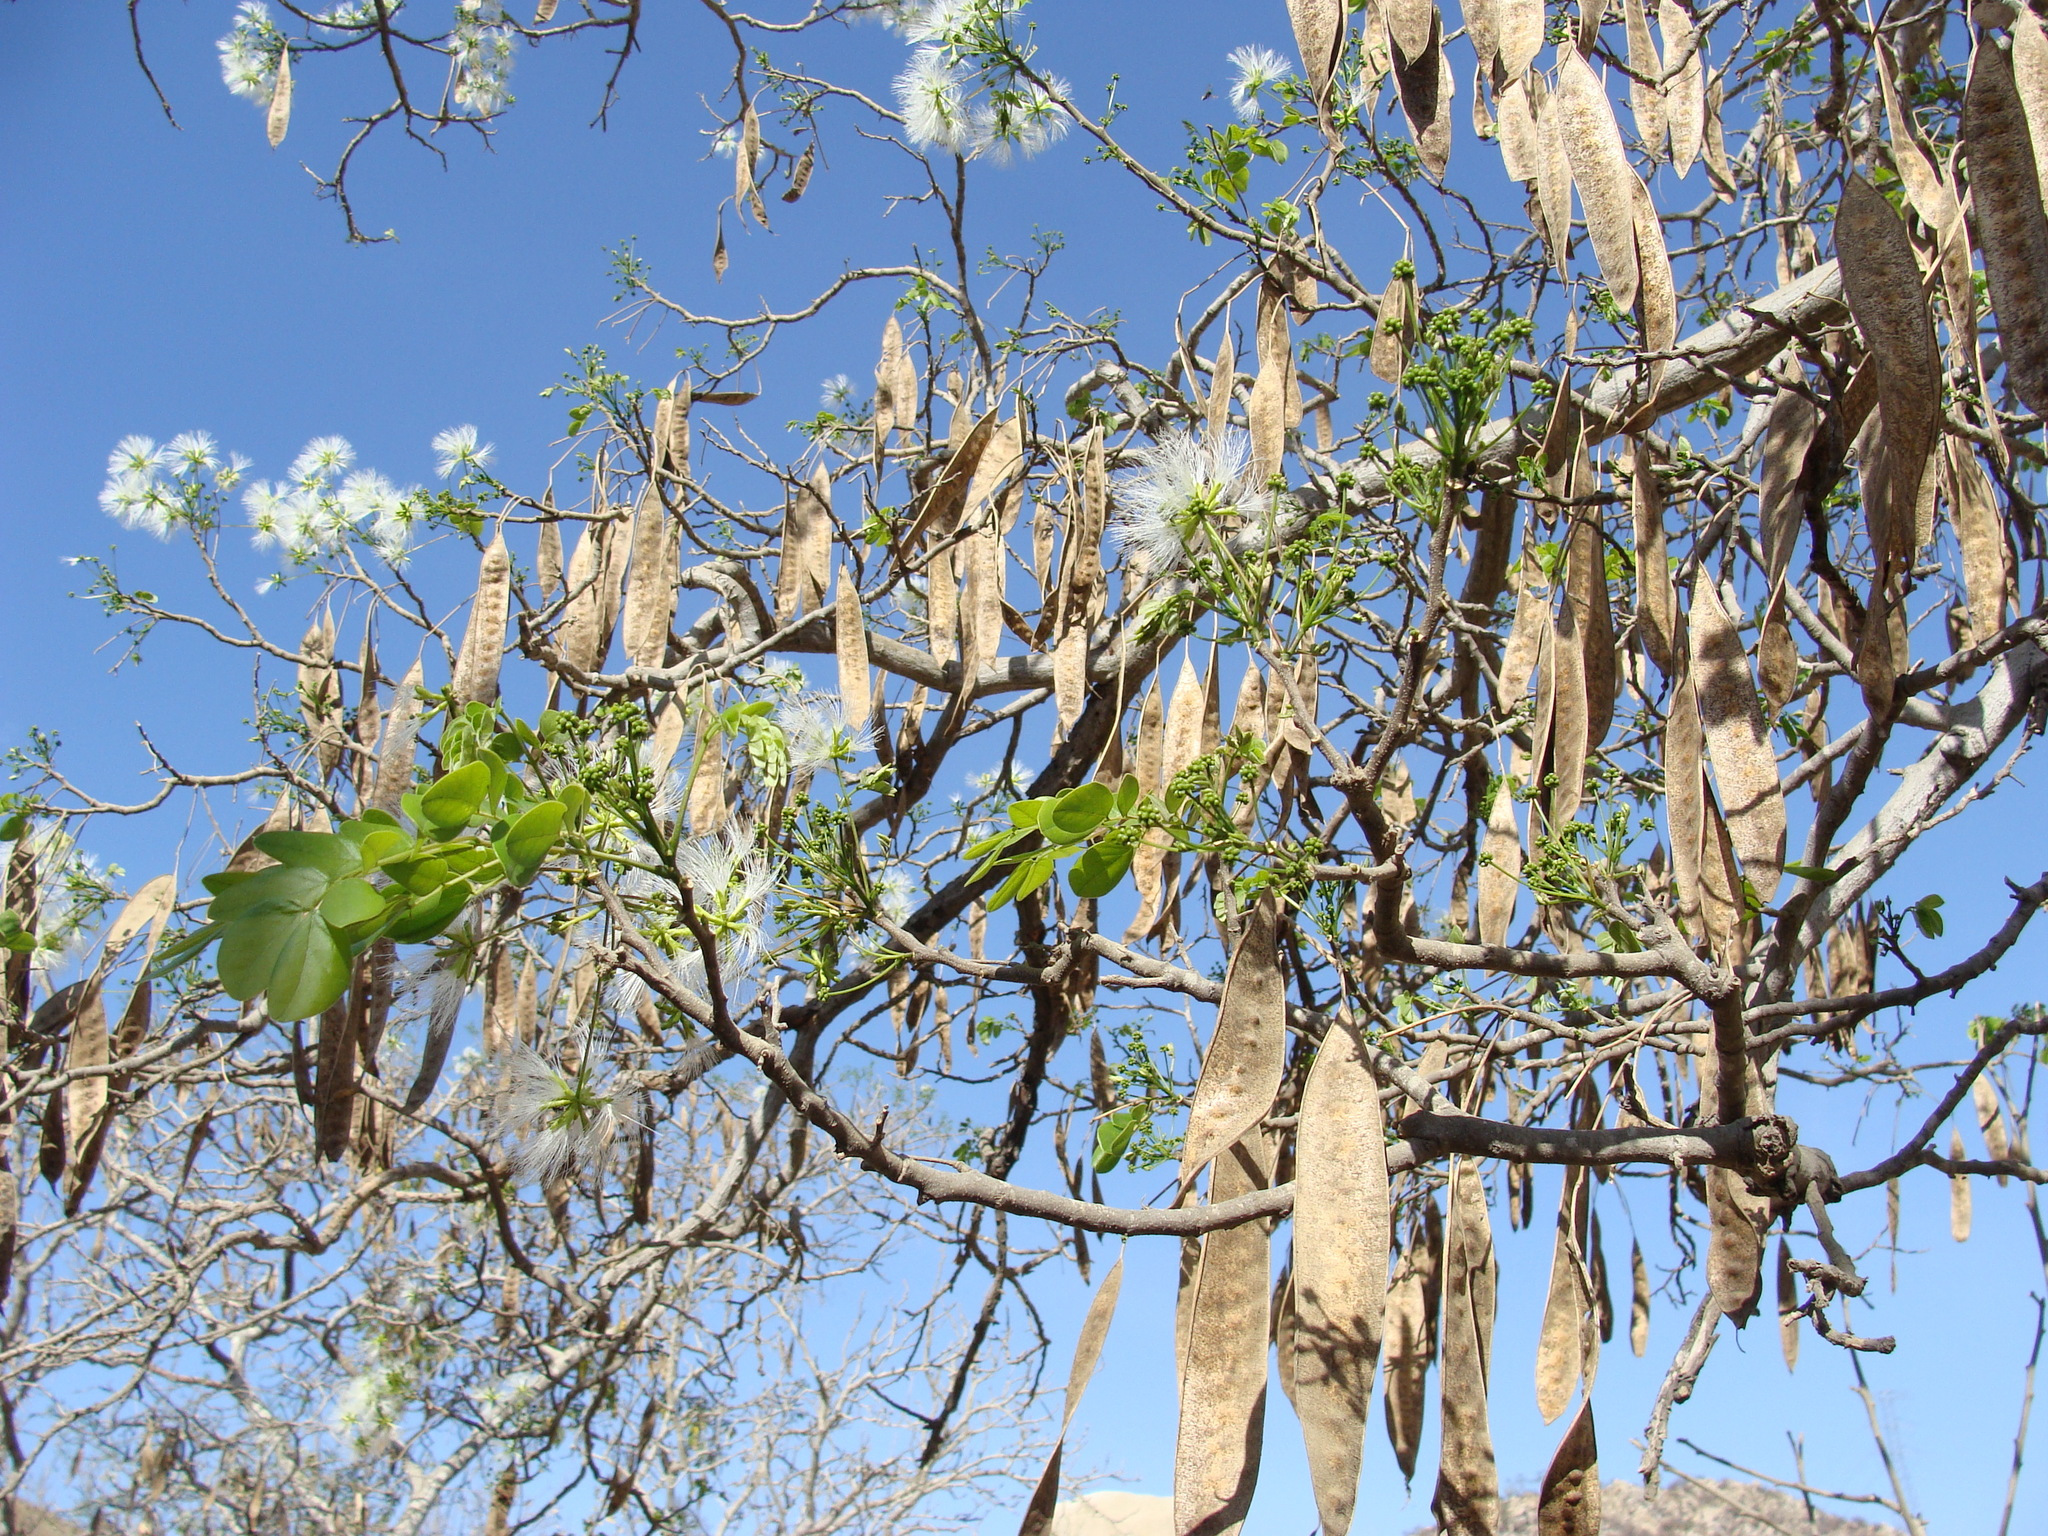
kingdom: Plantae
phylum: Tracheophyta
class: Magnoliopsida
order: Fabales
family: Fabaceae
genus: Albizia
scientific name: Albizia occidentalis
